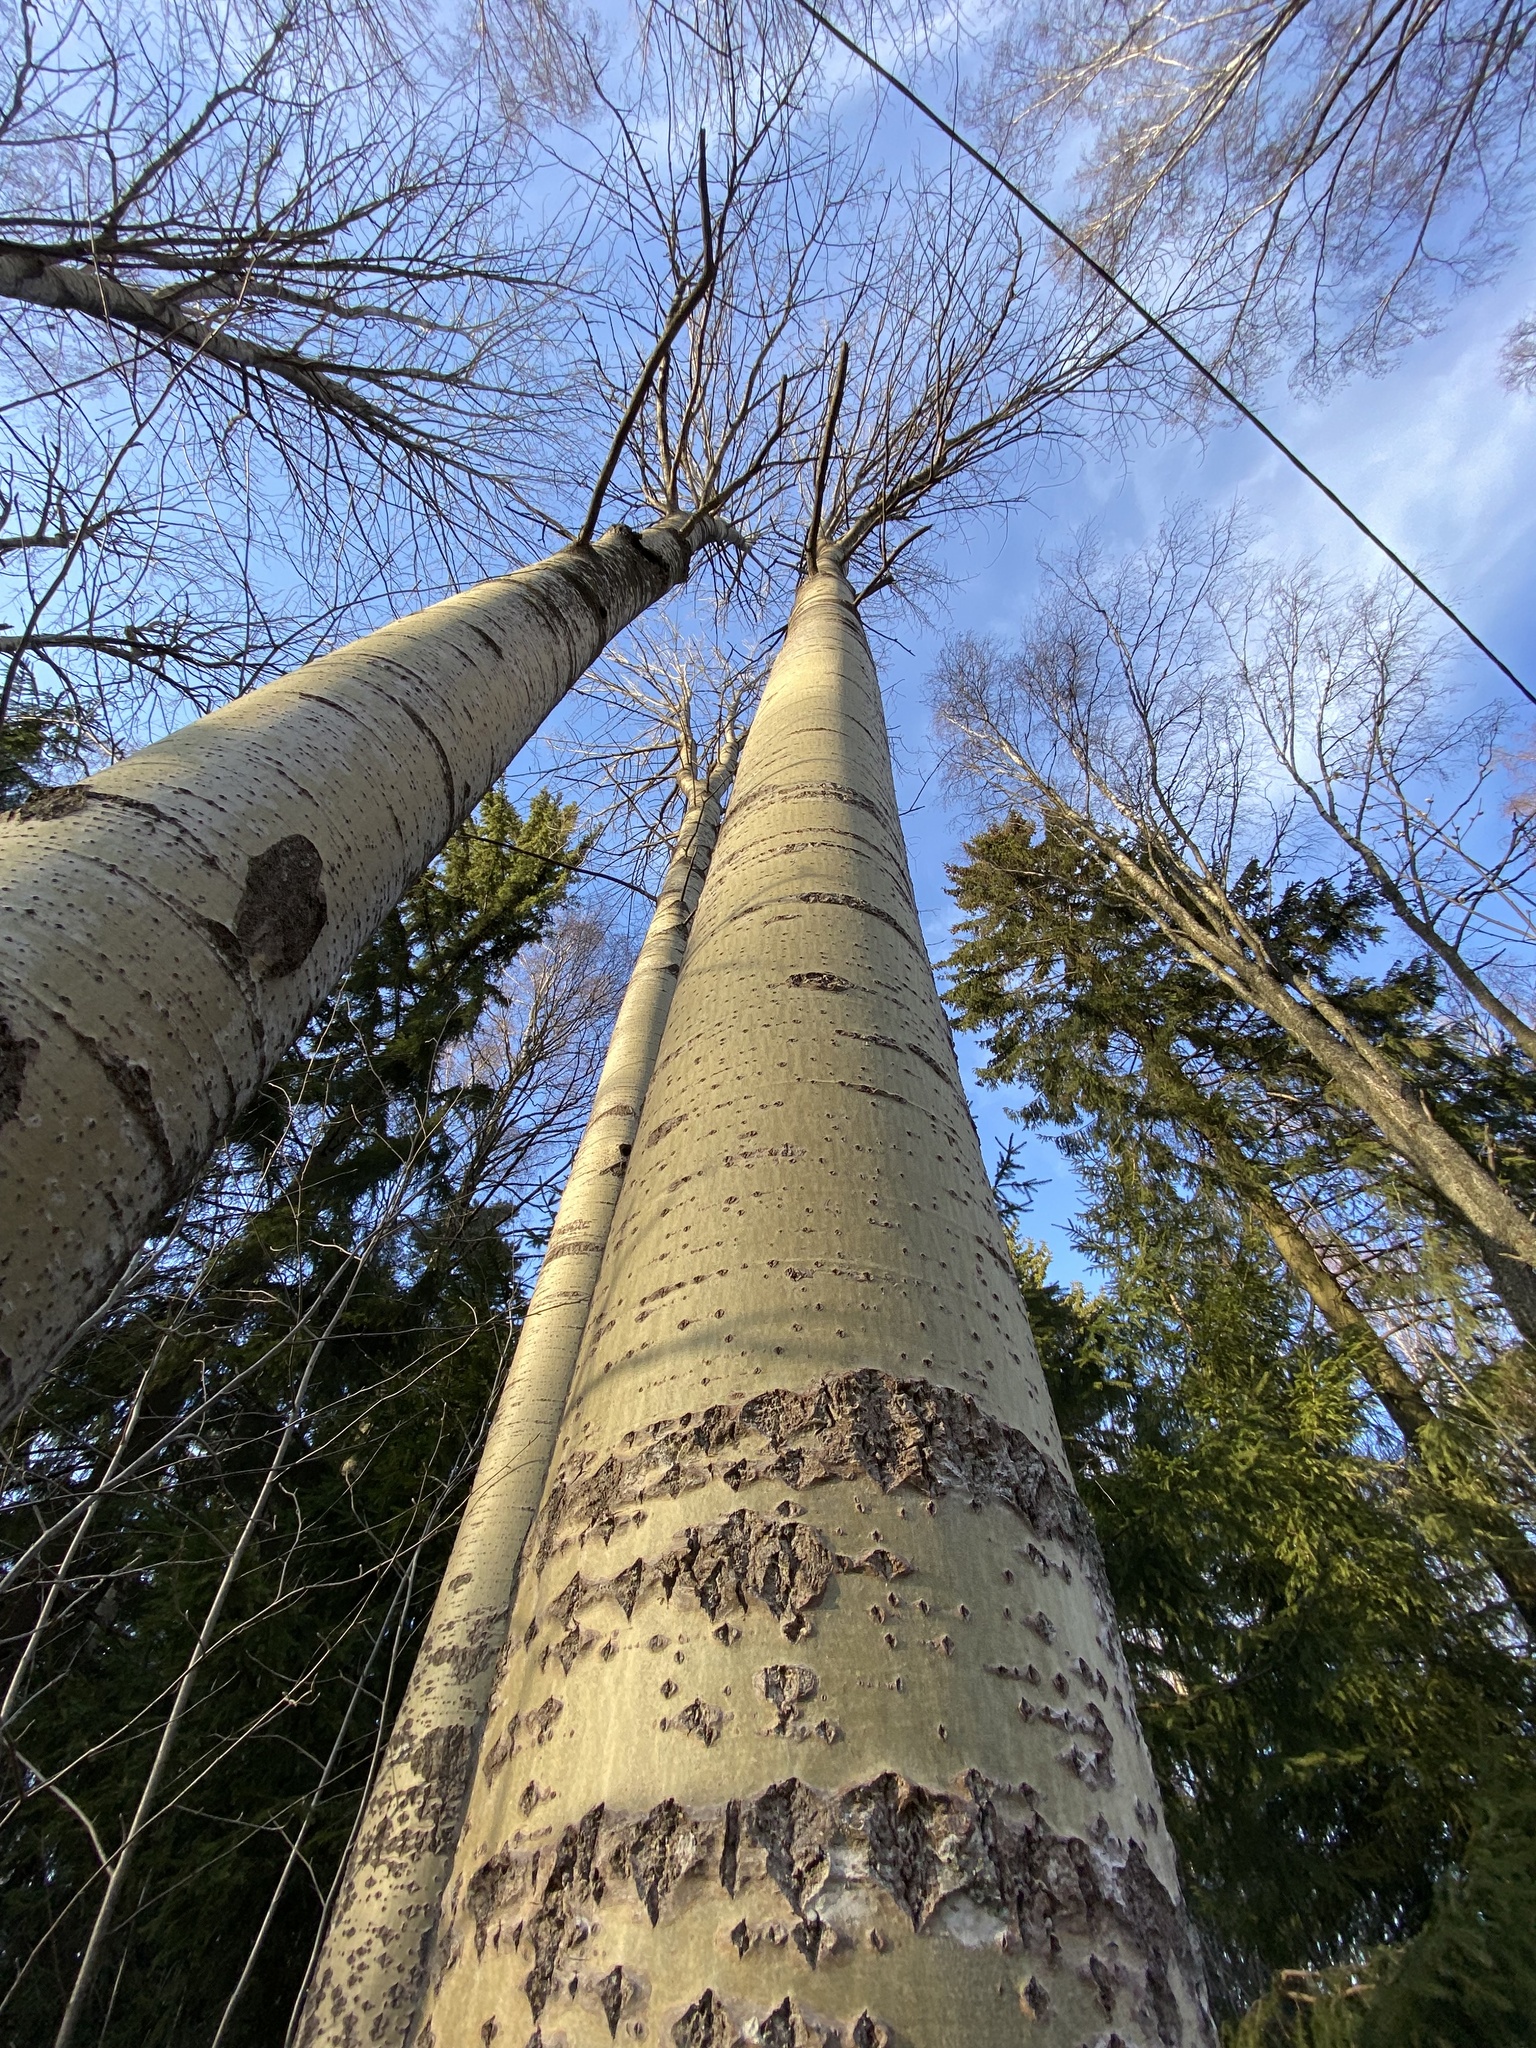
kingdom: Plantae
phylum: Tracheophyta
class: Magnoliopsida
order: Malpighiales
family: Salicaceae
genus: Populus
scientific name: Populus tremula
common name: European aspen
